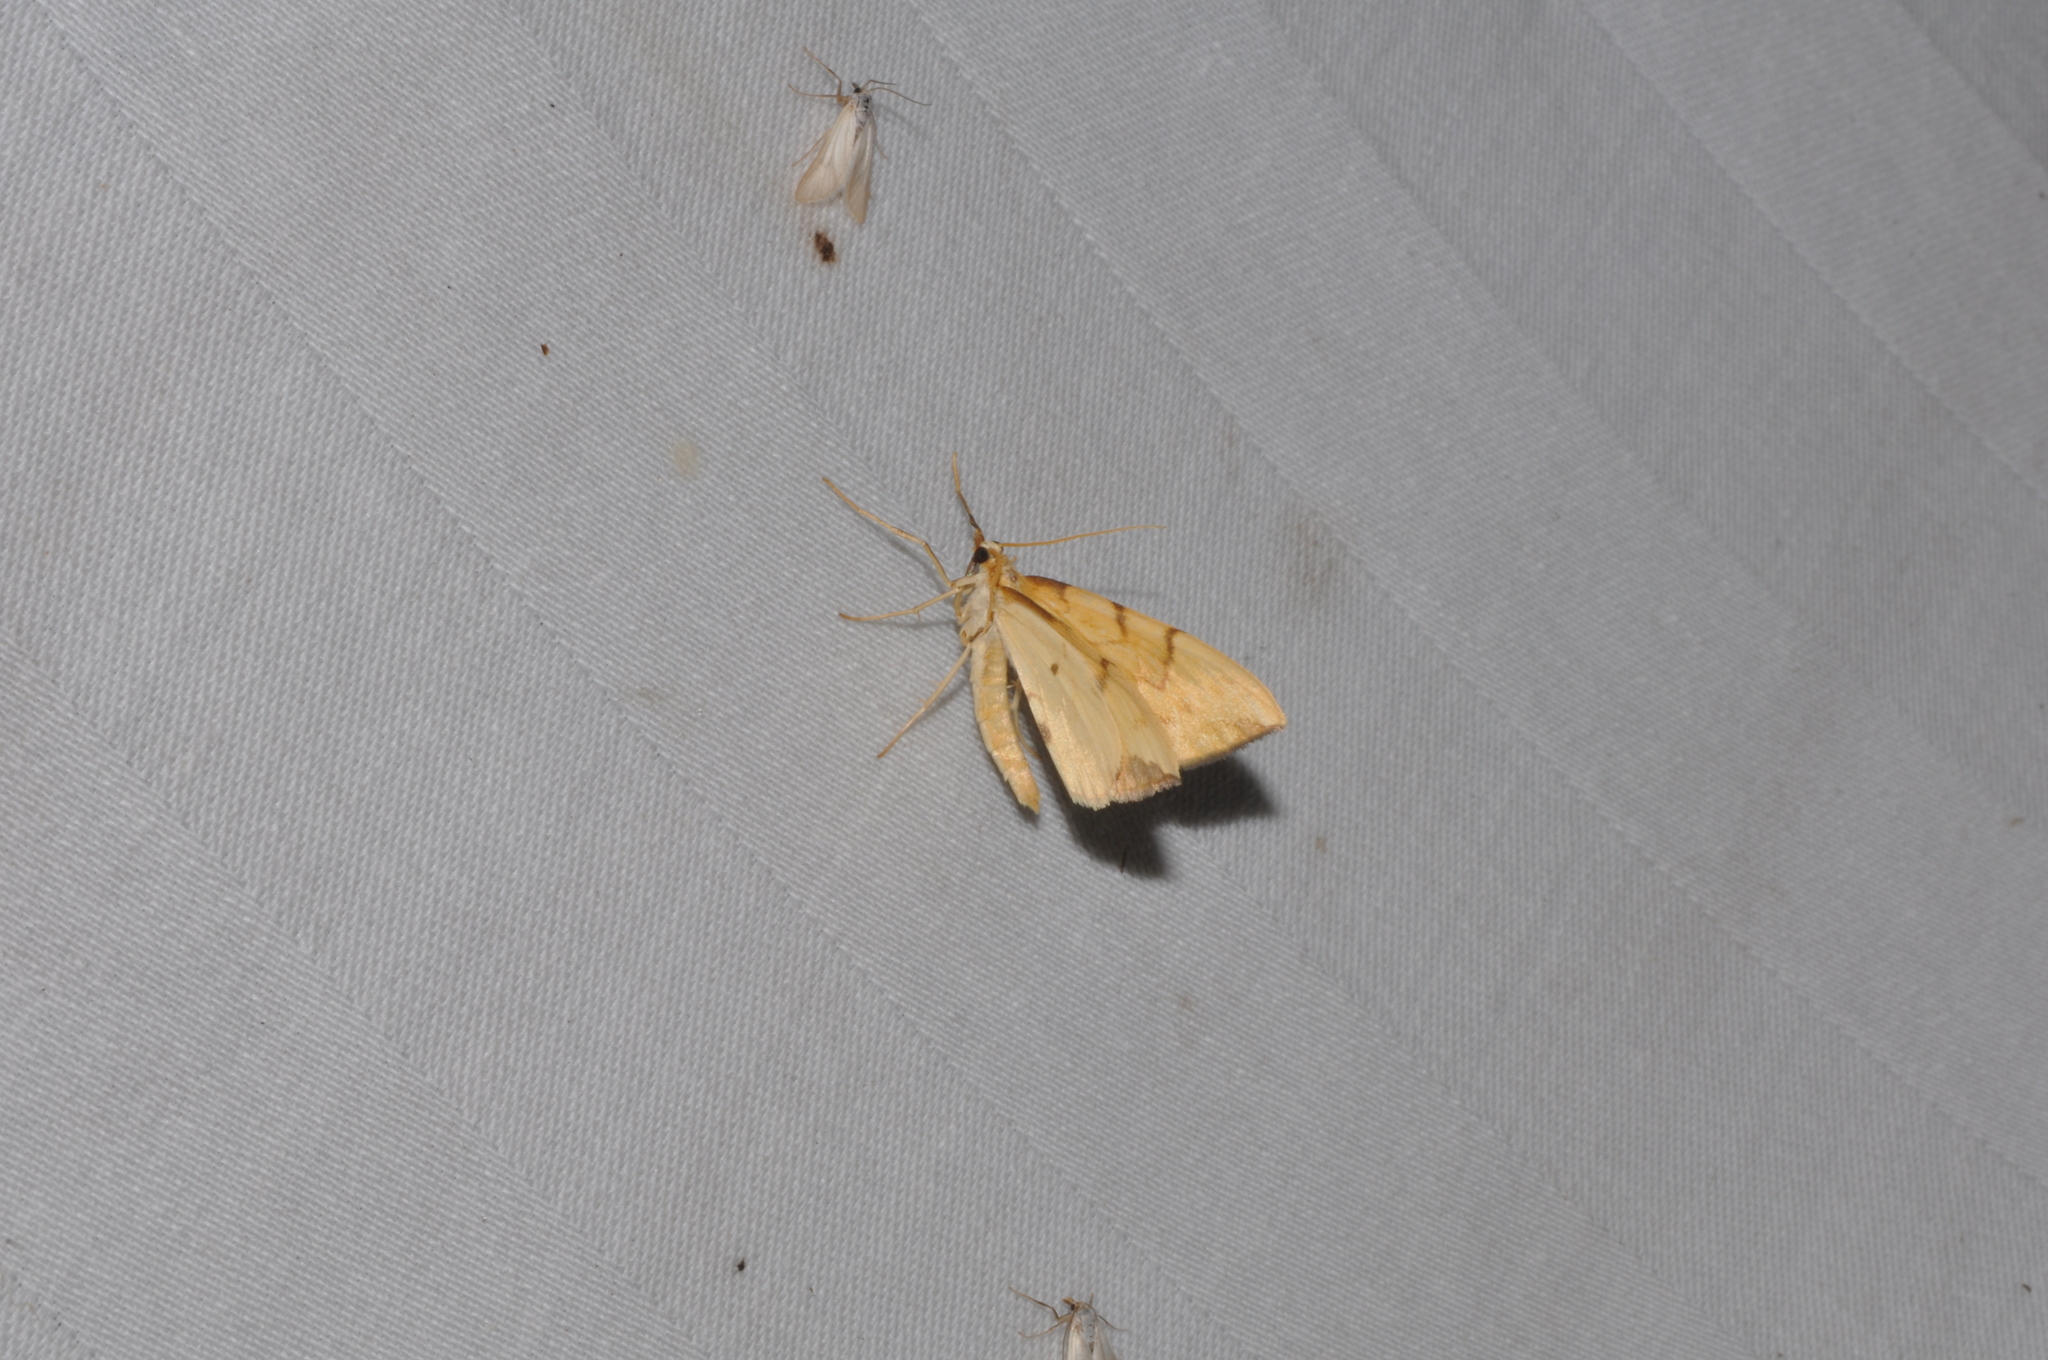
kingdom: Animalia
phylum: Arthropoda
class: Insecta
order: Lepidoptera
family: Geometridae
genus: Eulithis
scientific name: Eulithis pyraliata
